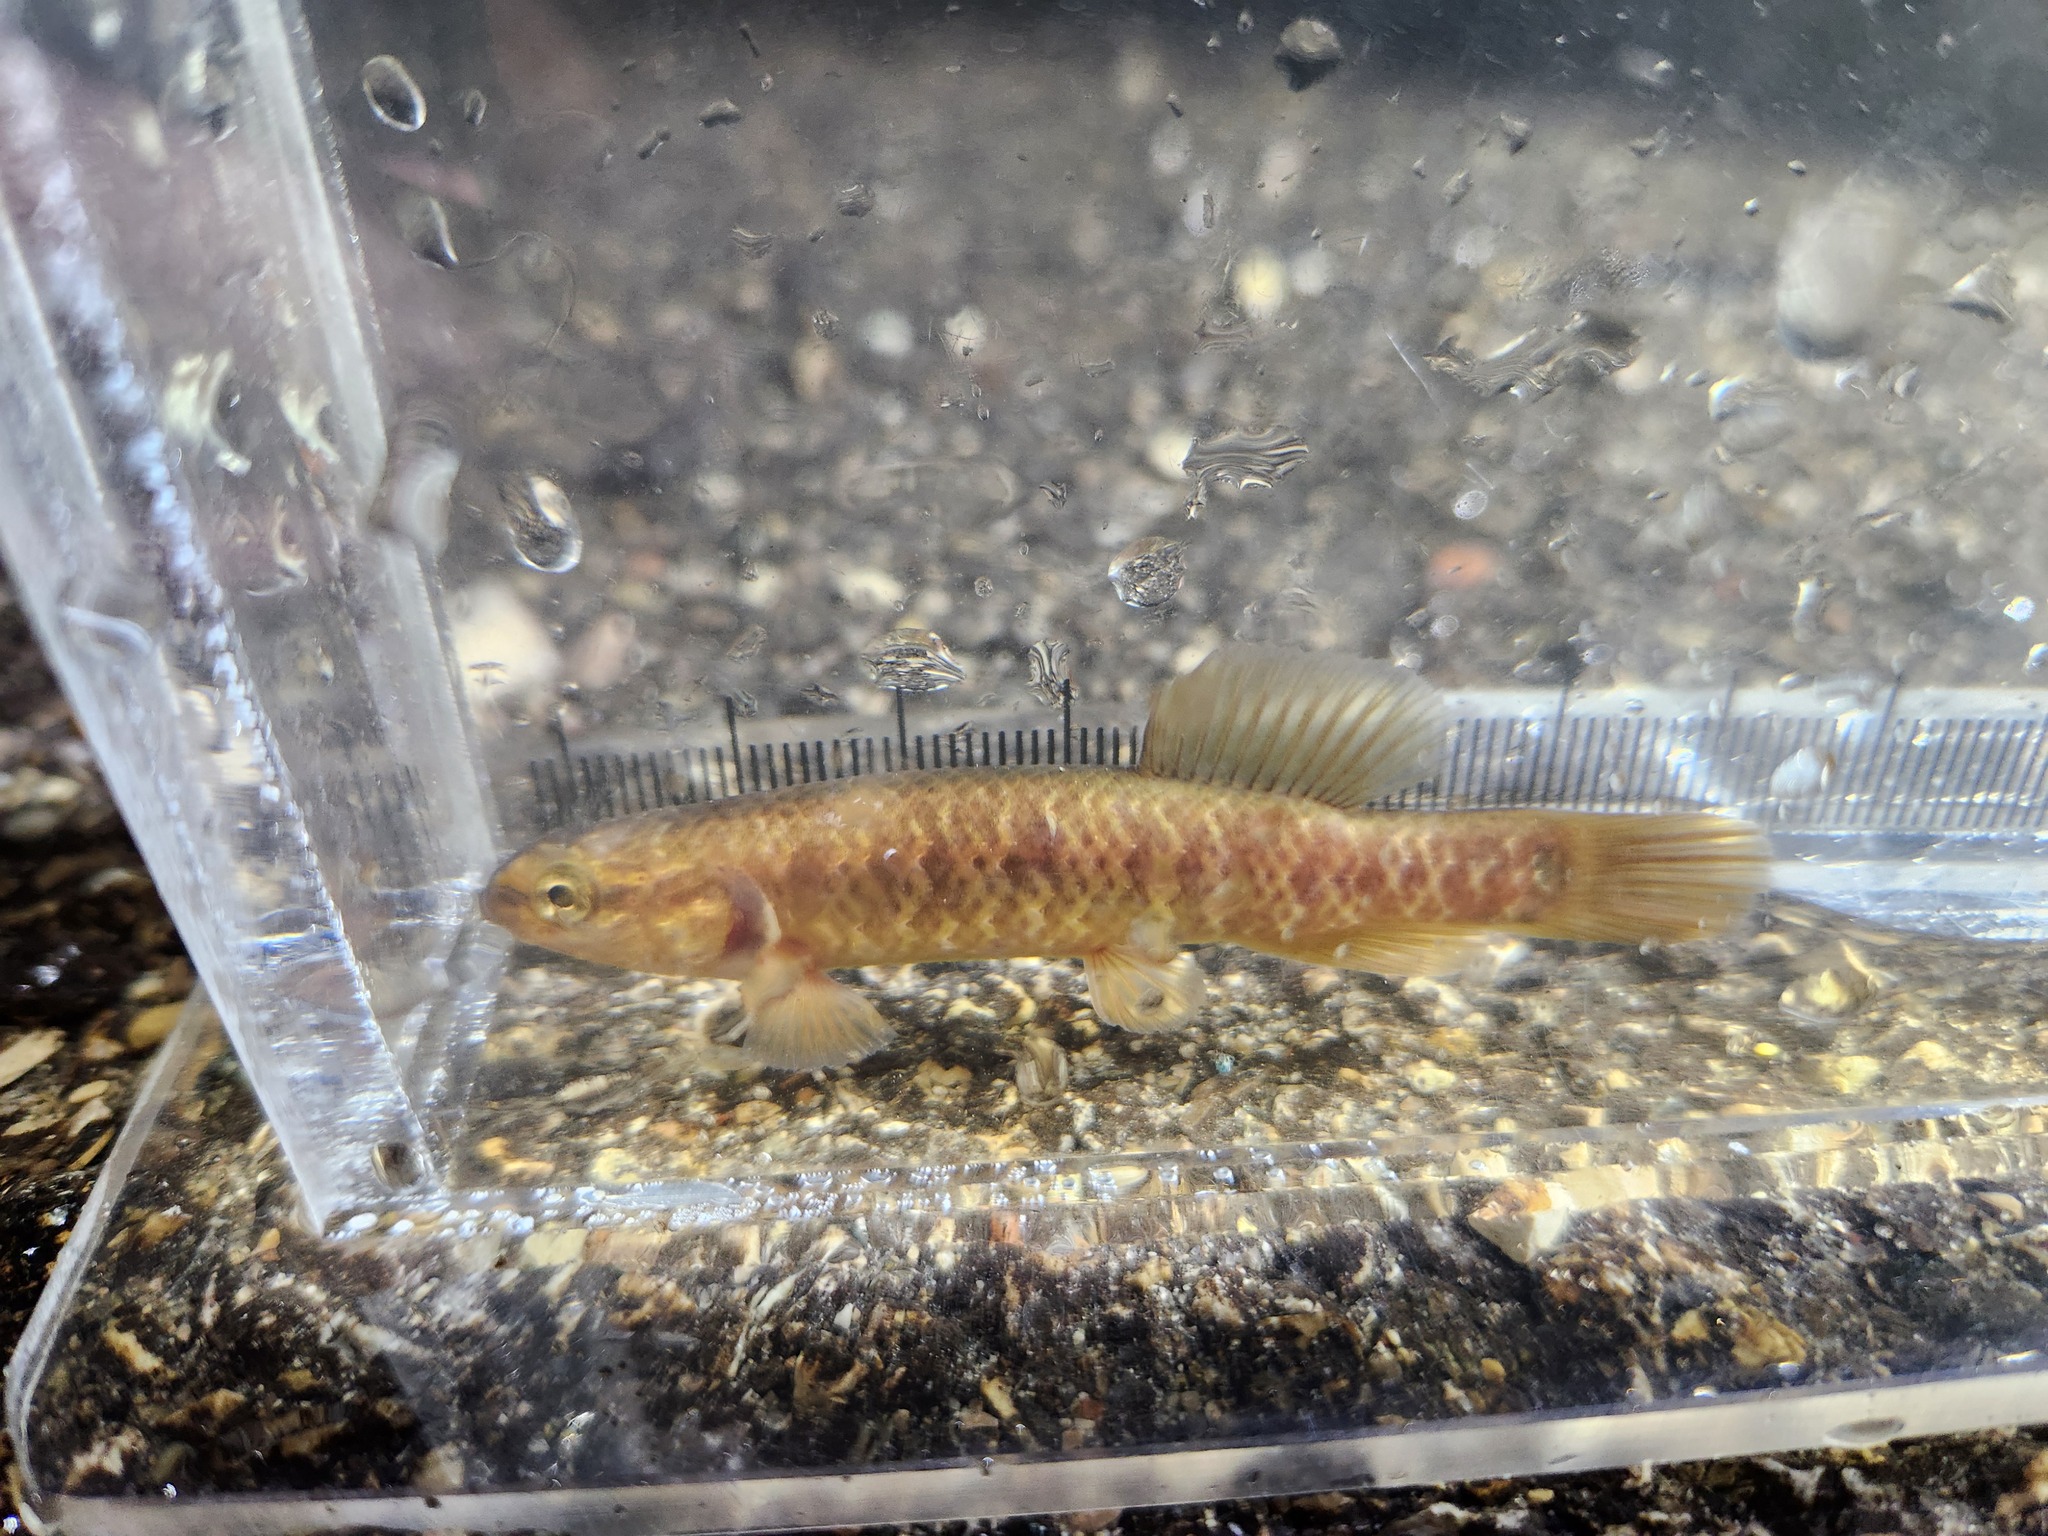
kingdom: Animalia
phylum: Chordata
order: Esociformes
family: Umbridae
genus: Umbra
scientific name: Umbra limi
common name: Central mudminnow
